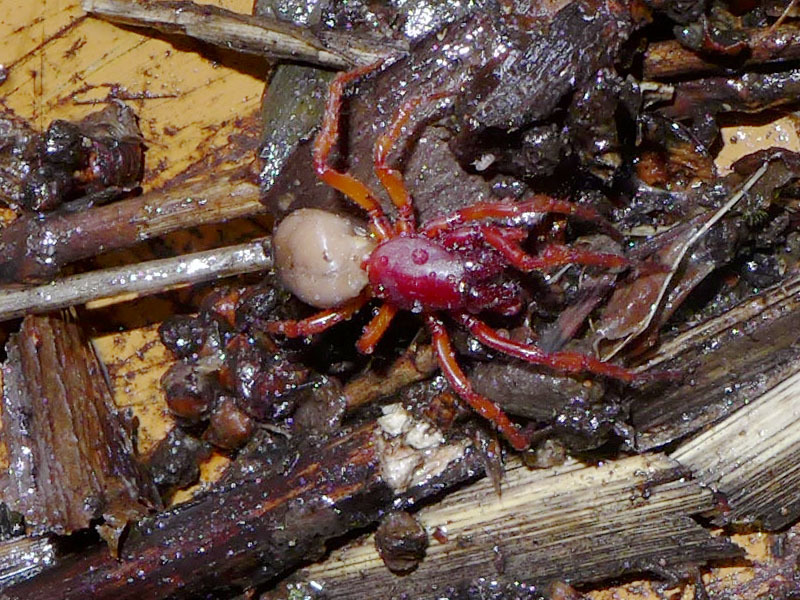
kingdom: Animalia
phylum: Arthropoda
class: Arachnida
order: Araneae
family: Dysderidae
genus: Dysdera
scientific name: Dysdera crocata
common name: Woodlouse spider
